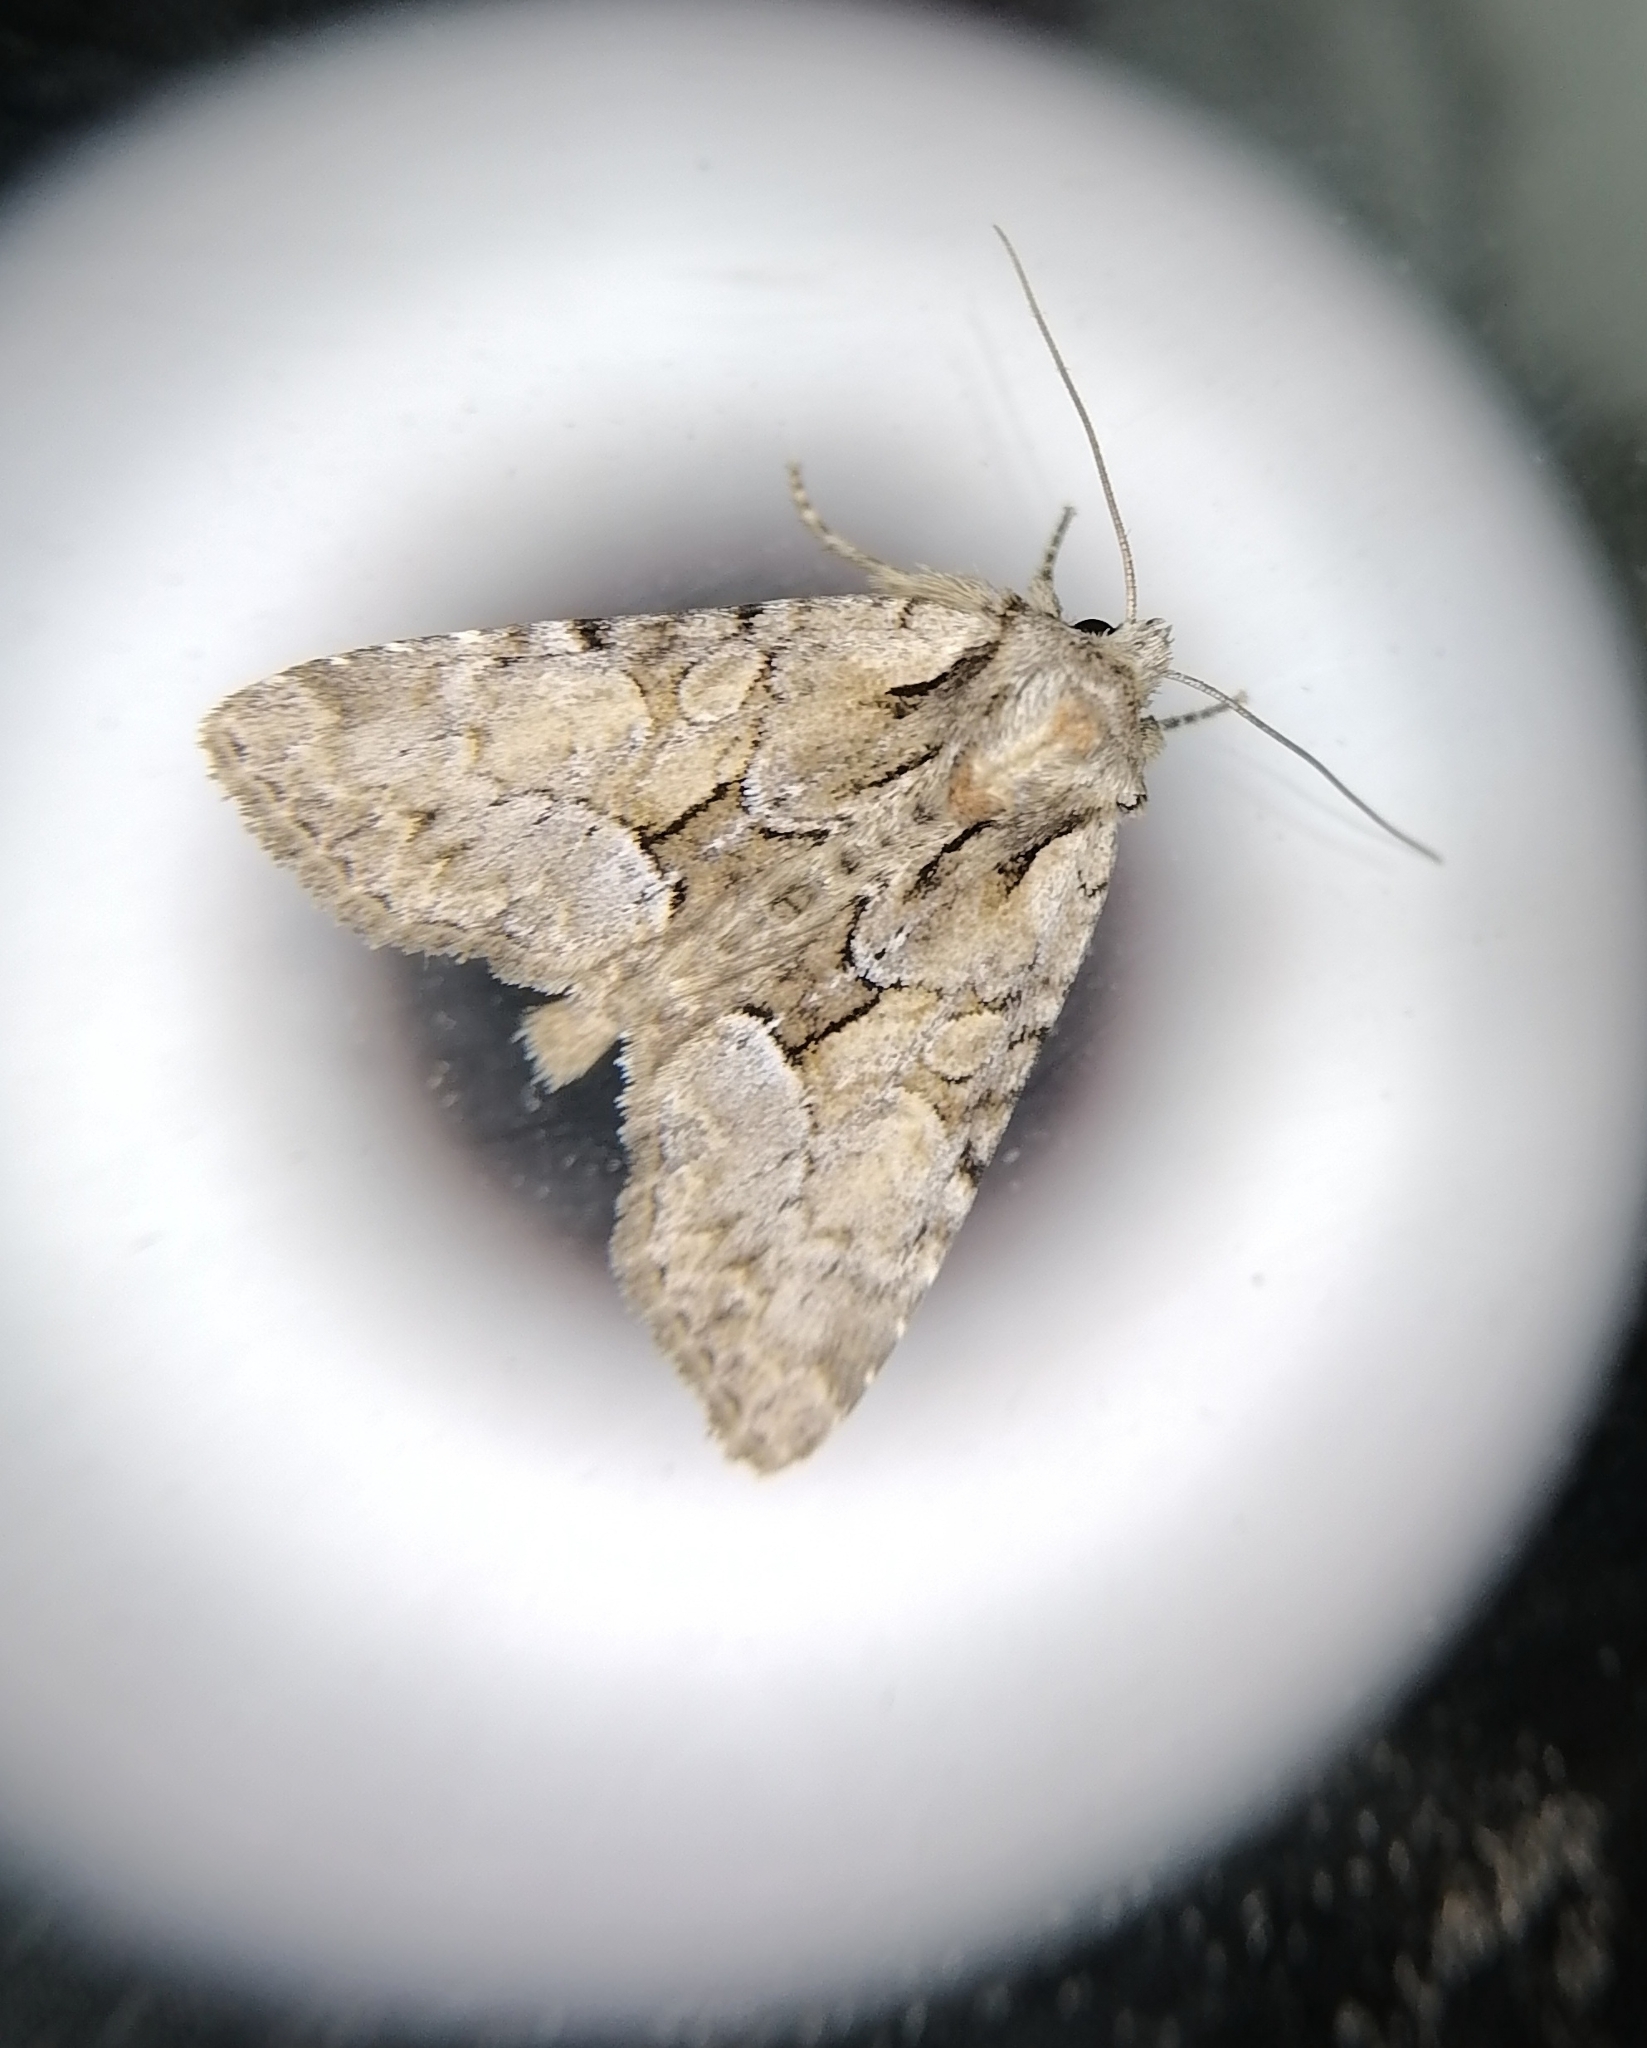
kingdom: Animalia
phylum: Arthropoda
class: Insecta
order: Lepidoptera
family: Noctuidae
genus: Pabulatrix
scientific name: Pabulatrix pabulatricula
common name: Union rustic
